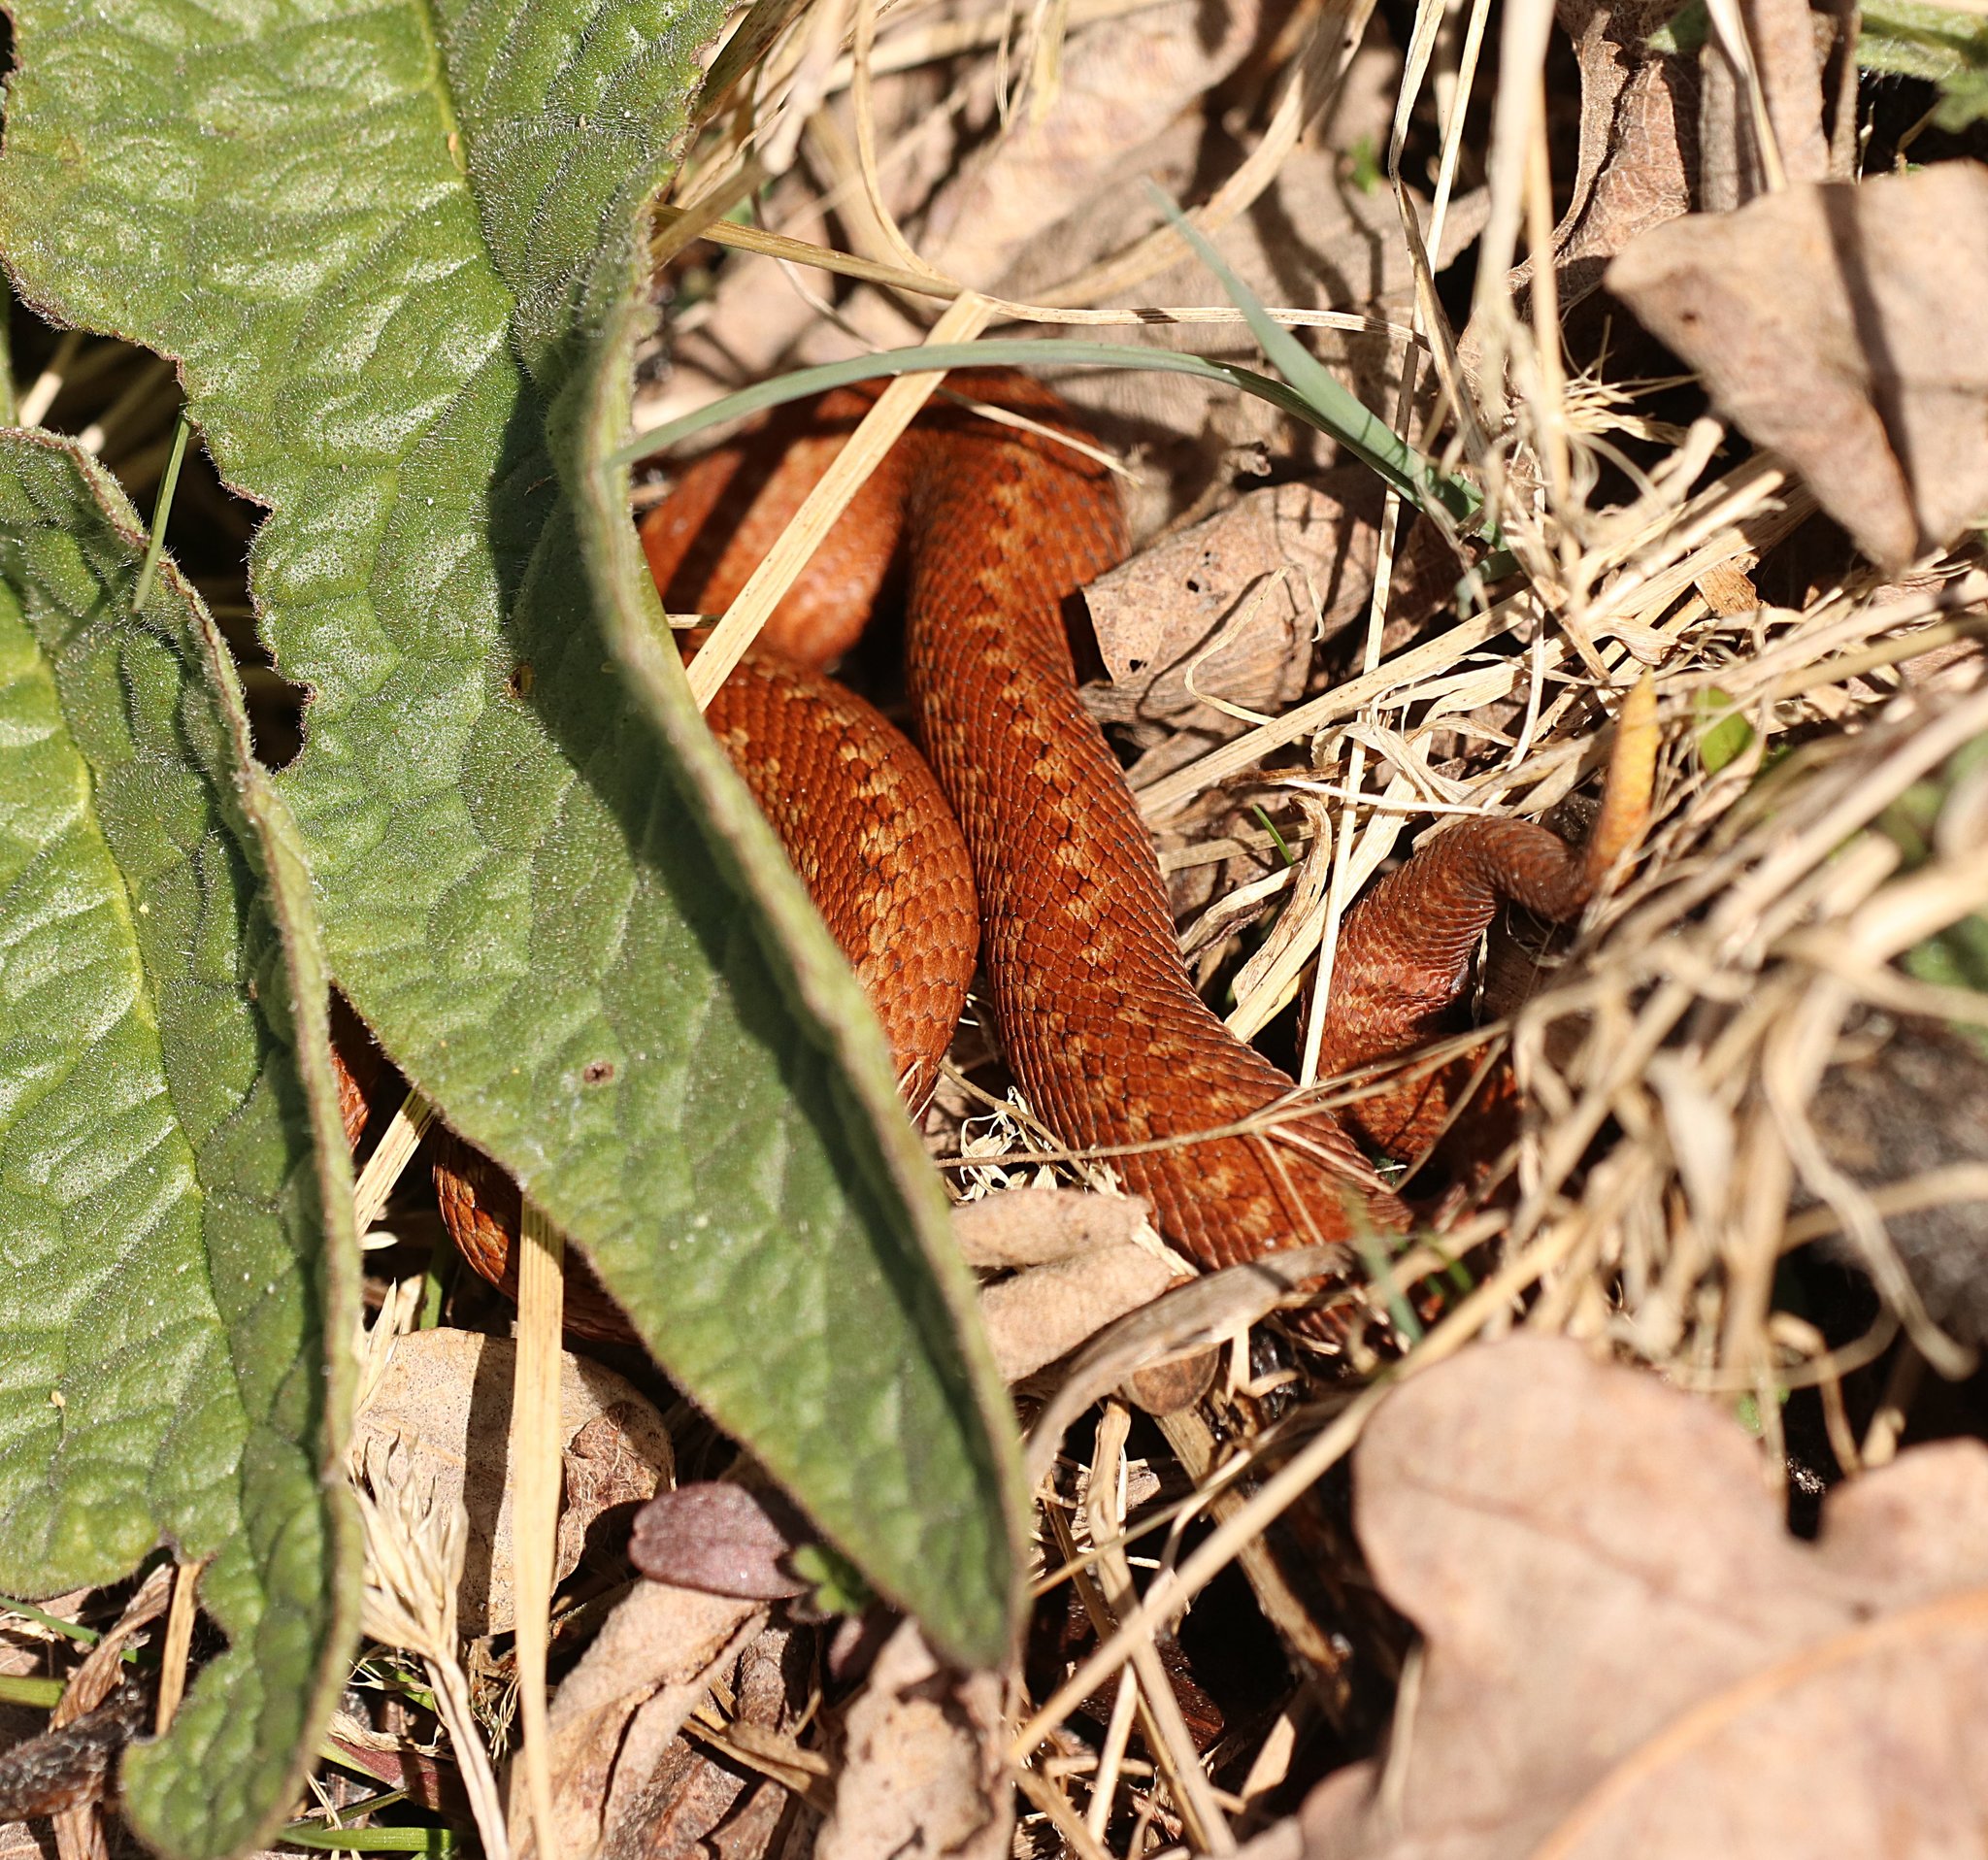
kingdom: Animalia
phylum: Chordata
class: Squamata
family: Viperidae
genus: Vipera
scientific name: Vipera berus
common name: Adder
